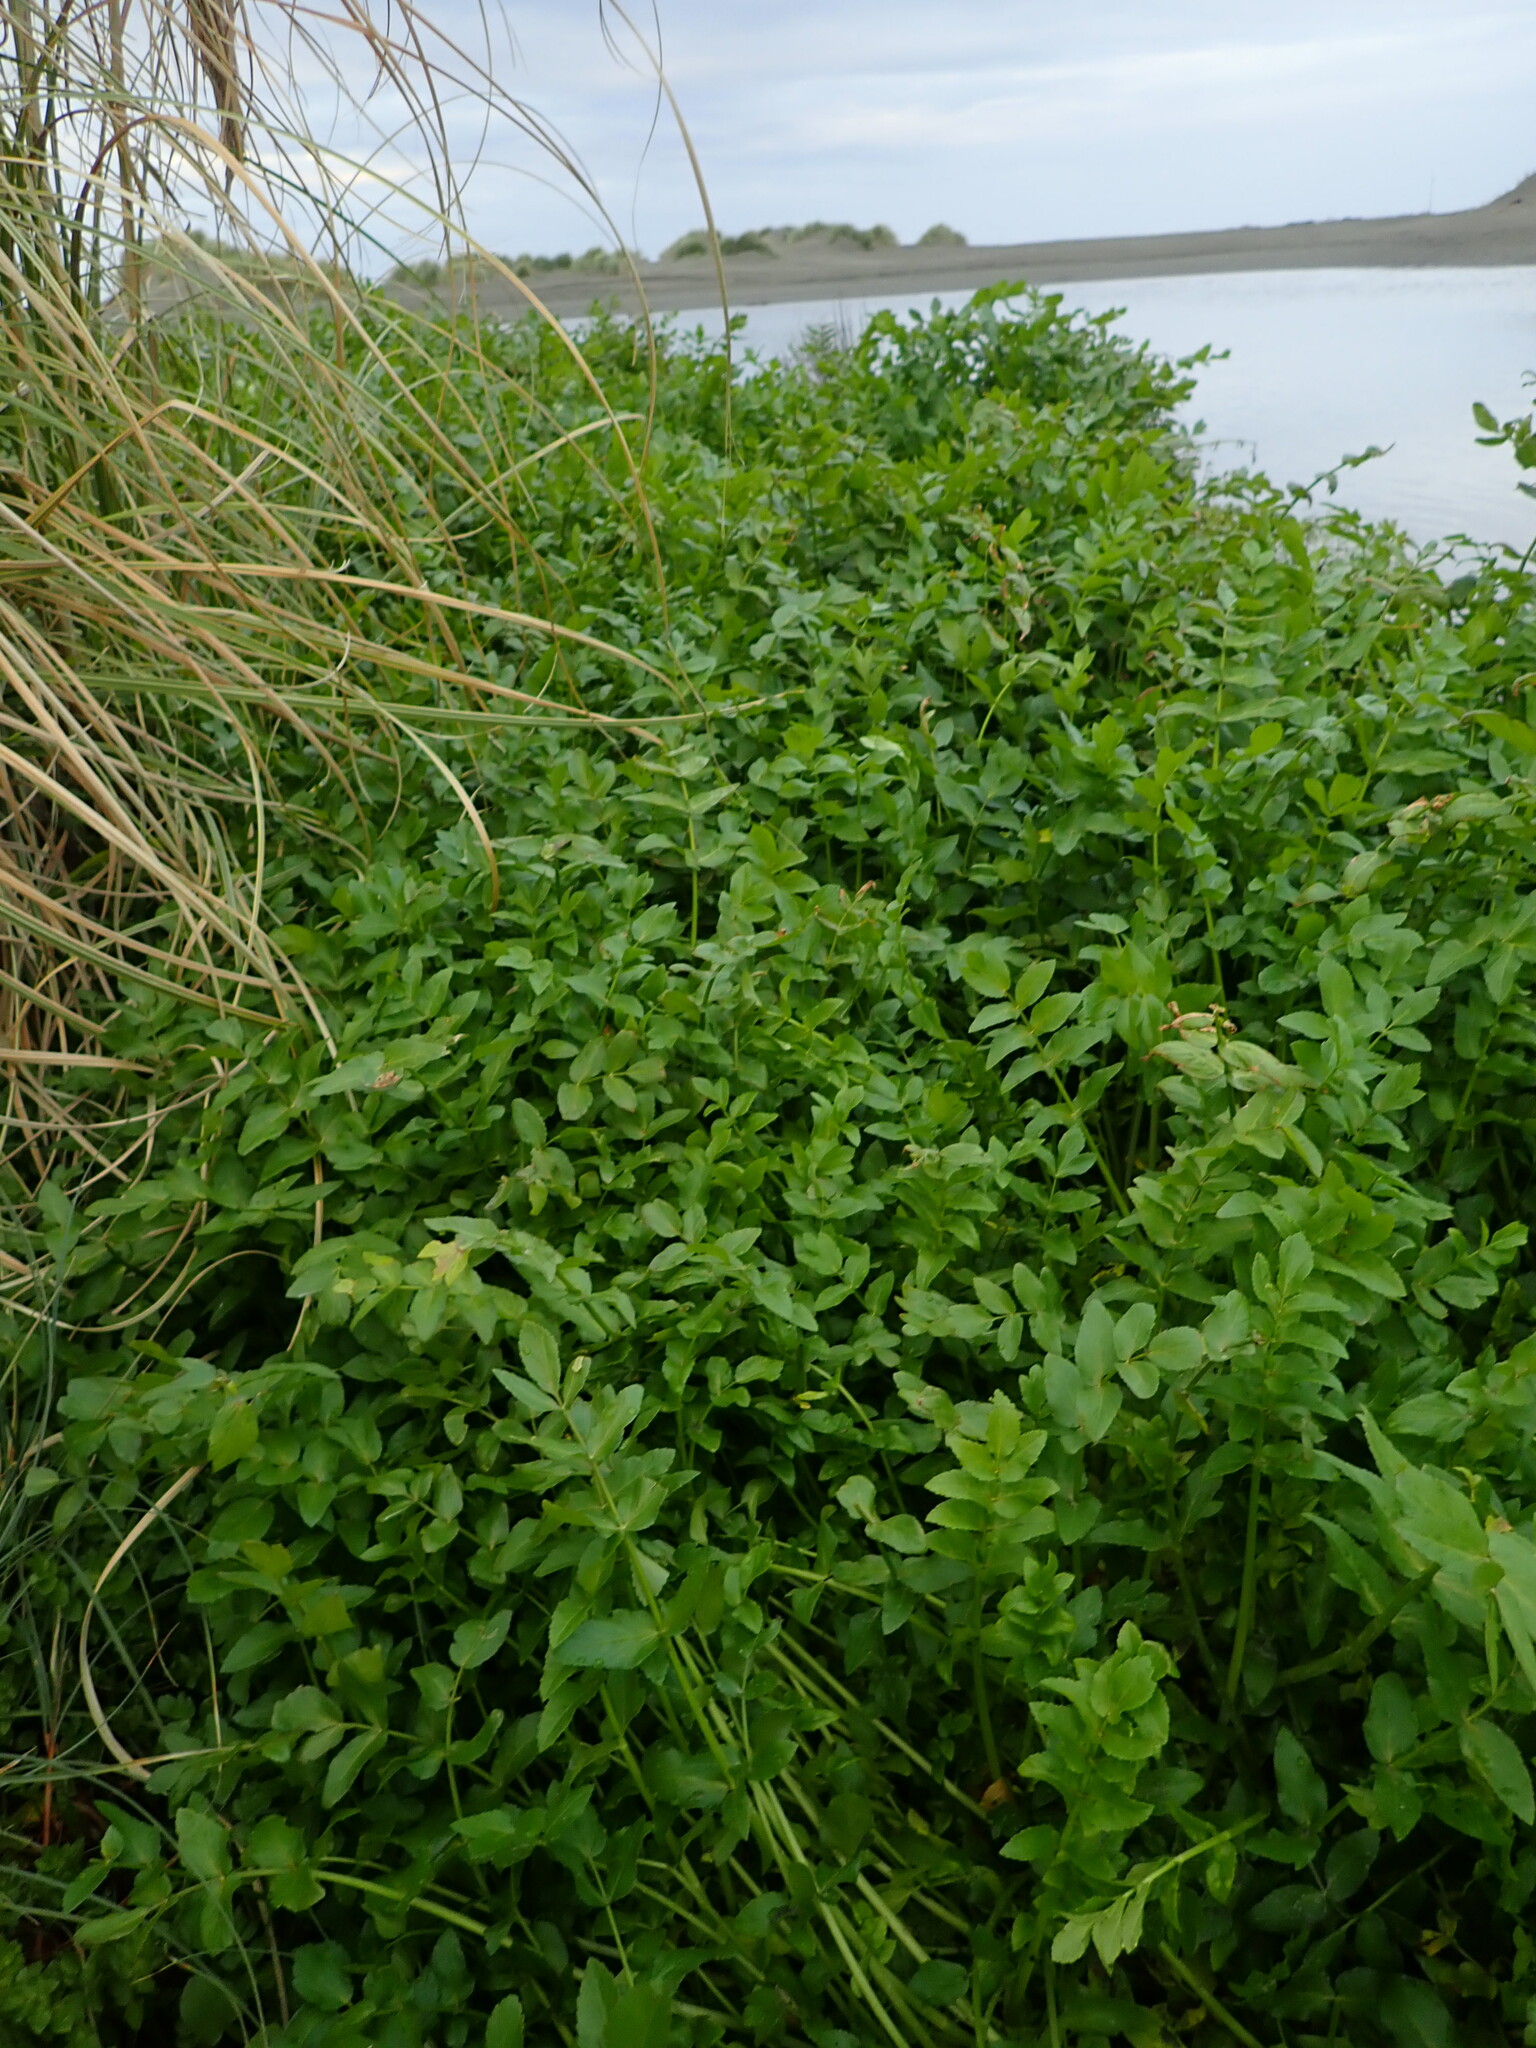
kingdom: Plantae
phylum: Tracheophyta
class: Magnoliopsida
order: Apiales
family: Apiaceae
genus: Helosciadium
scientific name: Helosciadium nodiflorum
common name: Fool's-watercress
